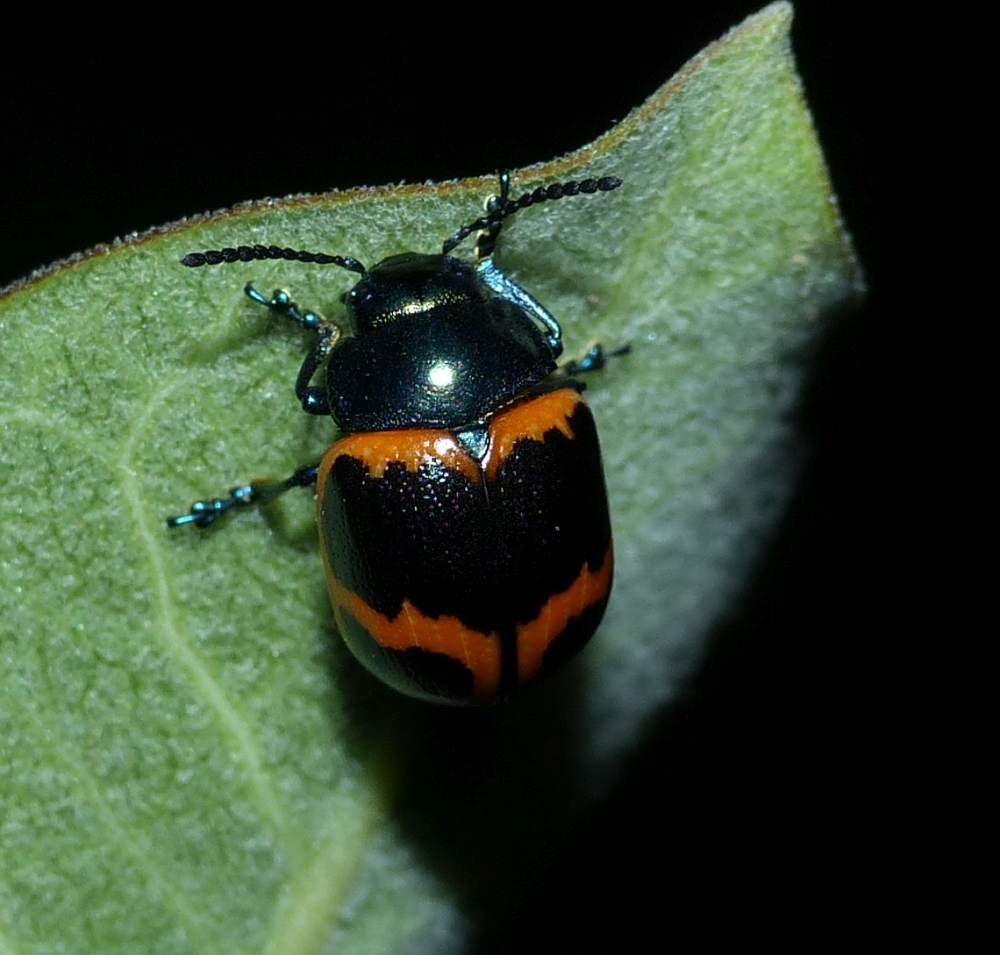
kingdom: Animalia
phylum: Arthropoda
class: Insecta
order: Coleoptera
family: Chrysomelidae
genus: Labidomera
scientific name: Labidomera clivicollis
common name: Swamp milkweed leaf beetle
